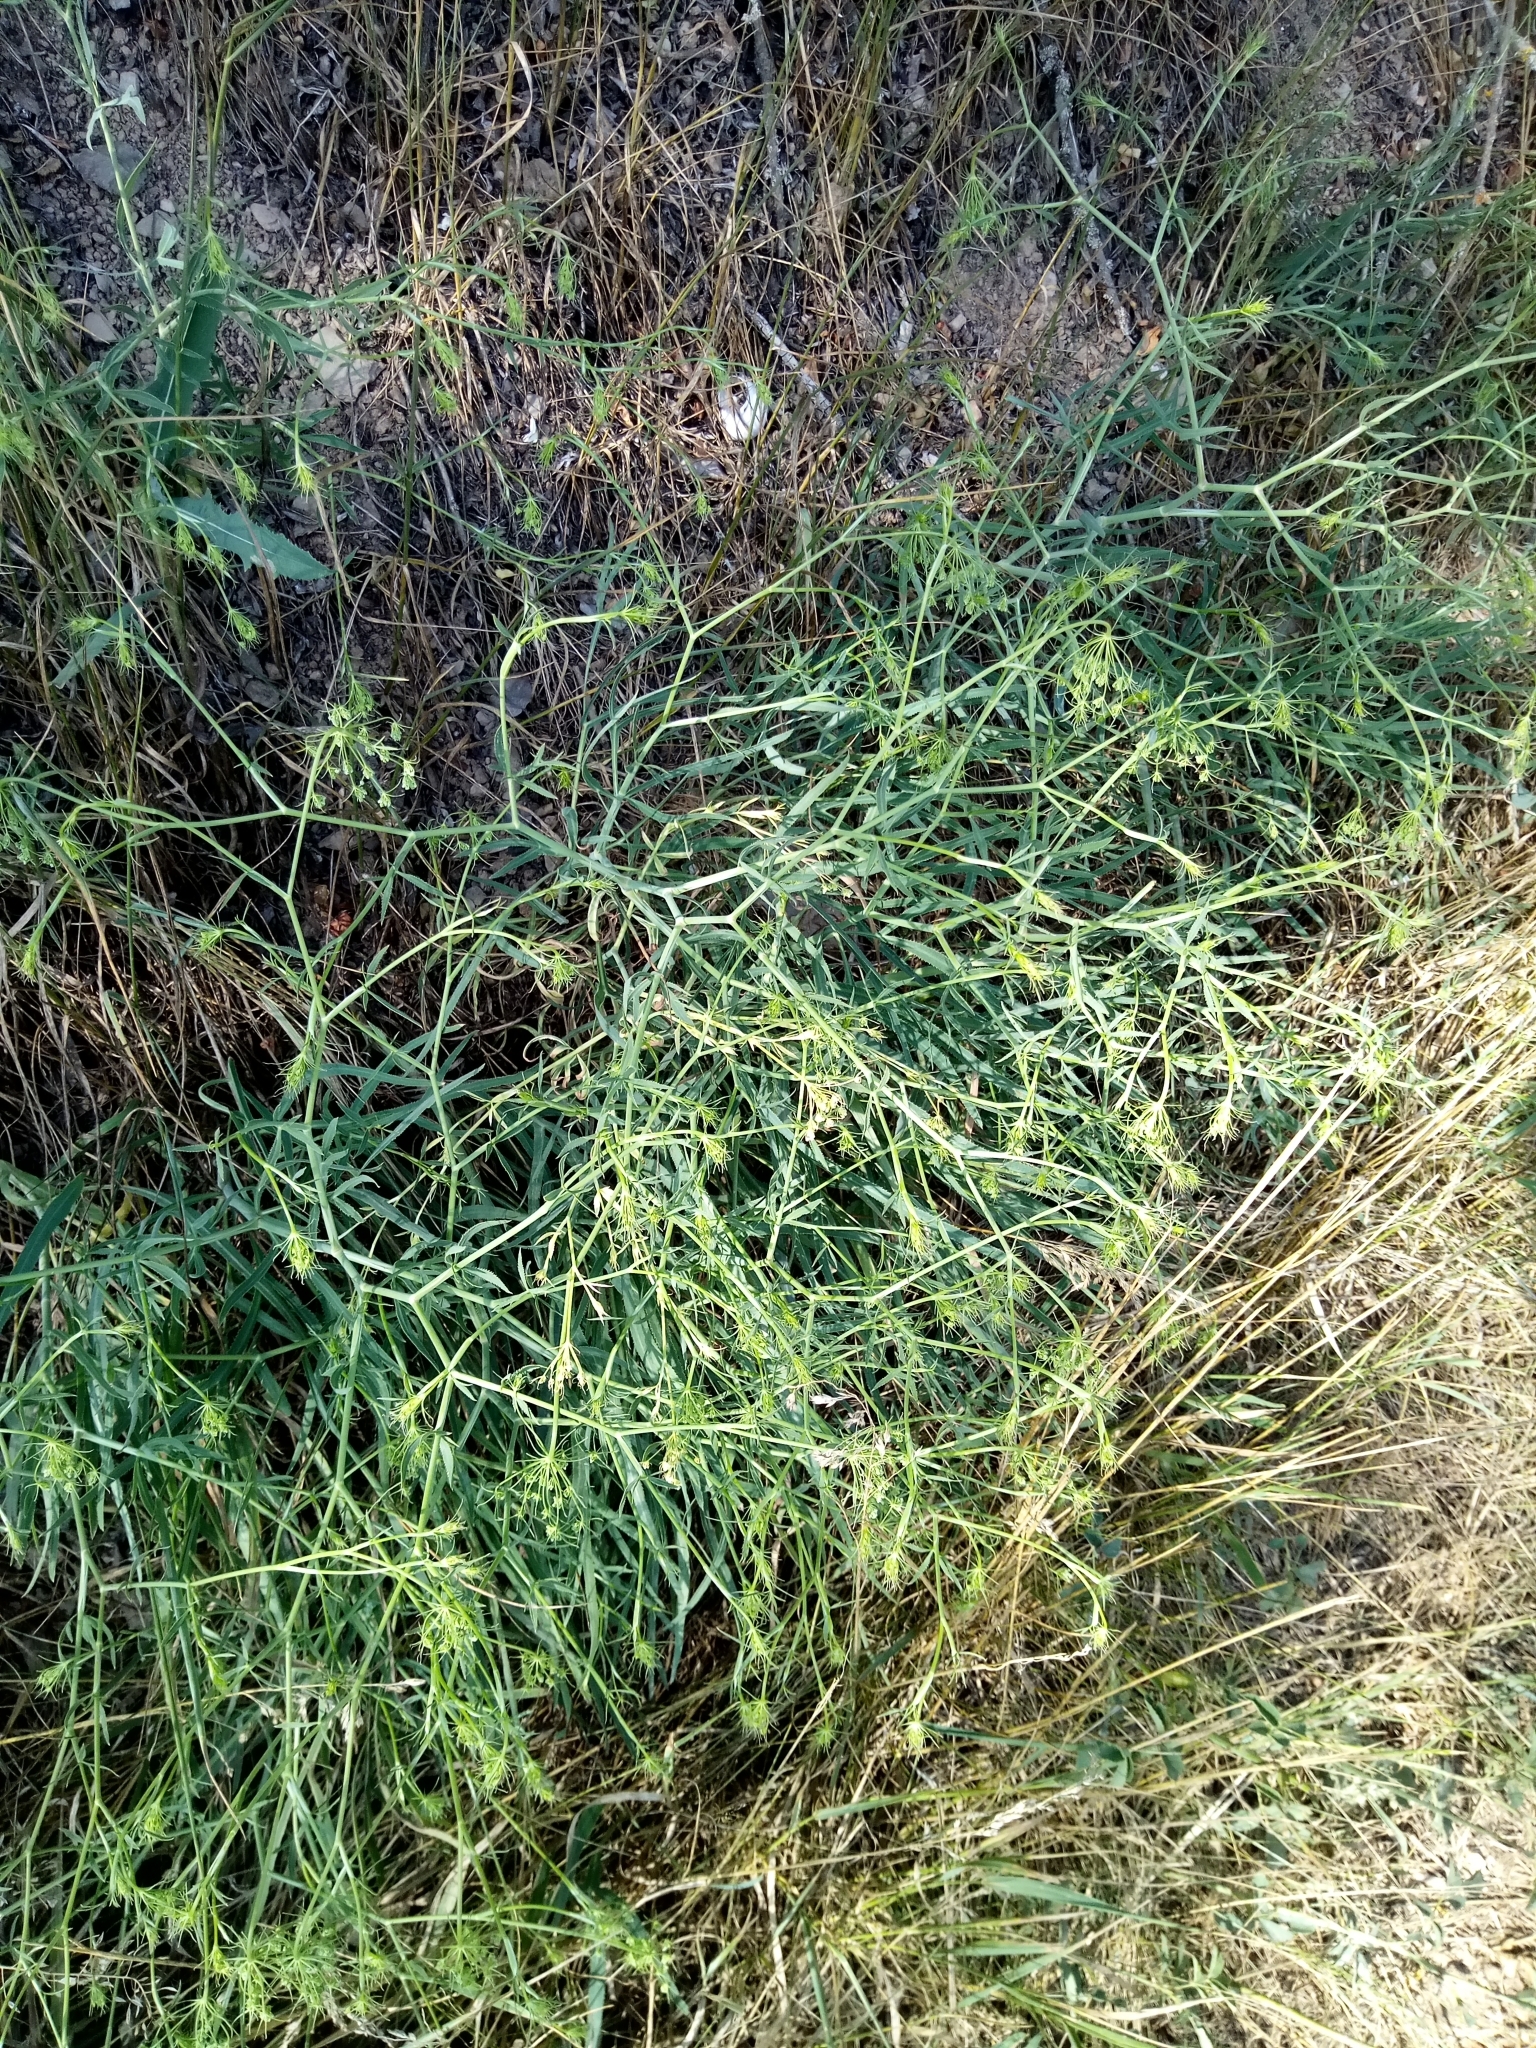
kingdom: Plantae
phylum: Tracheophyta
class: Magnoliopsida
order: Apiales
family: Apiaceae
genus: Falcaria
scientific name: Falcaria vulgaris
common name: Longleaf
